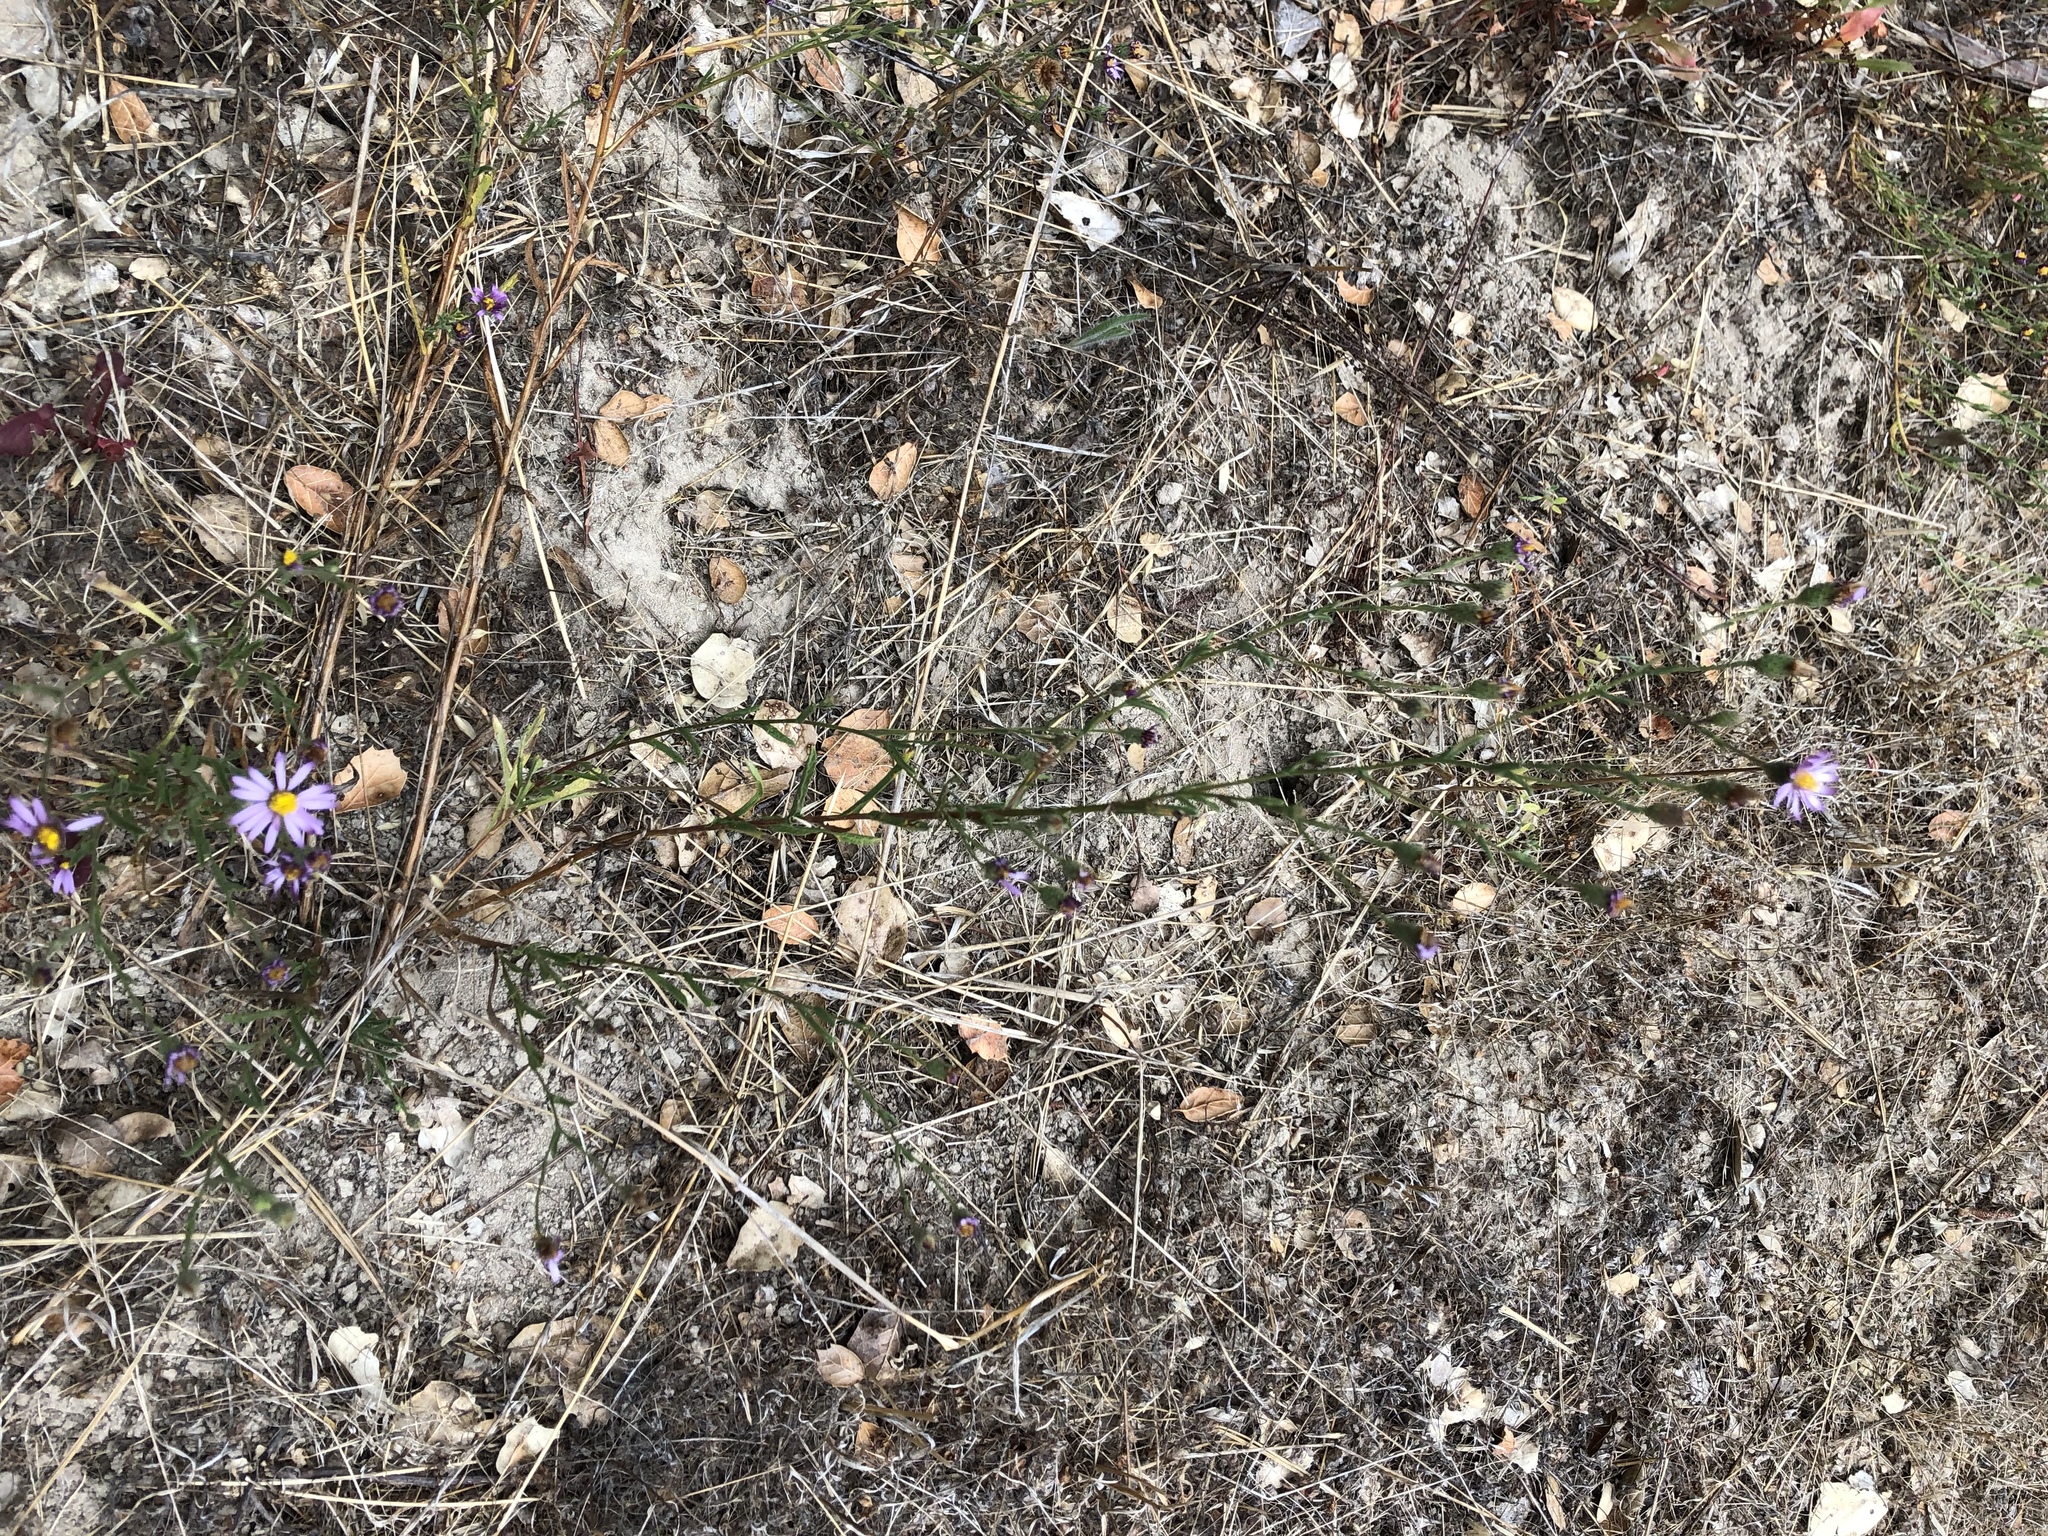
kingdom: Plantae
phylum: Tracheophyta
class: Magnoliopsida
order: Asterales
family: Asteraceae
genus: Corethrogyne
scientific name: Corethrogyne filaginifolia
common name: Sand-aster
